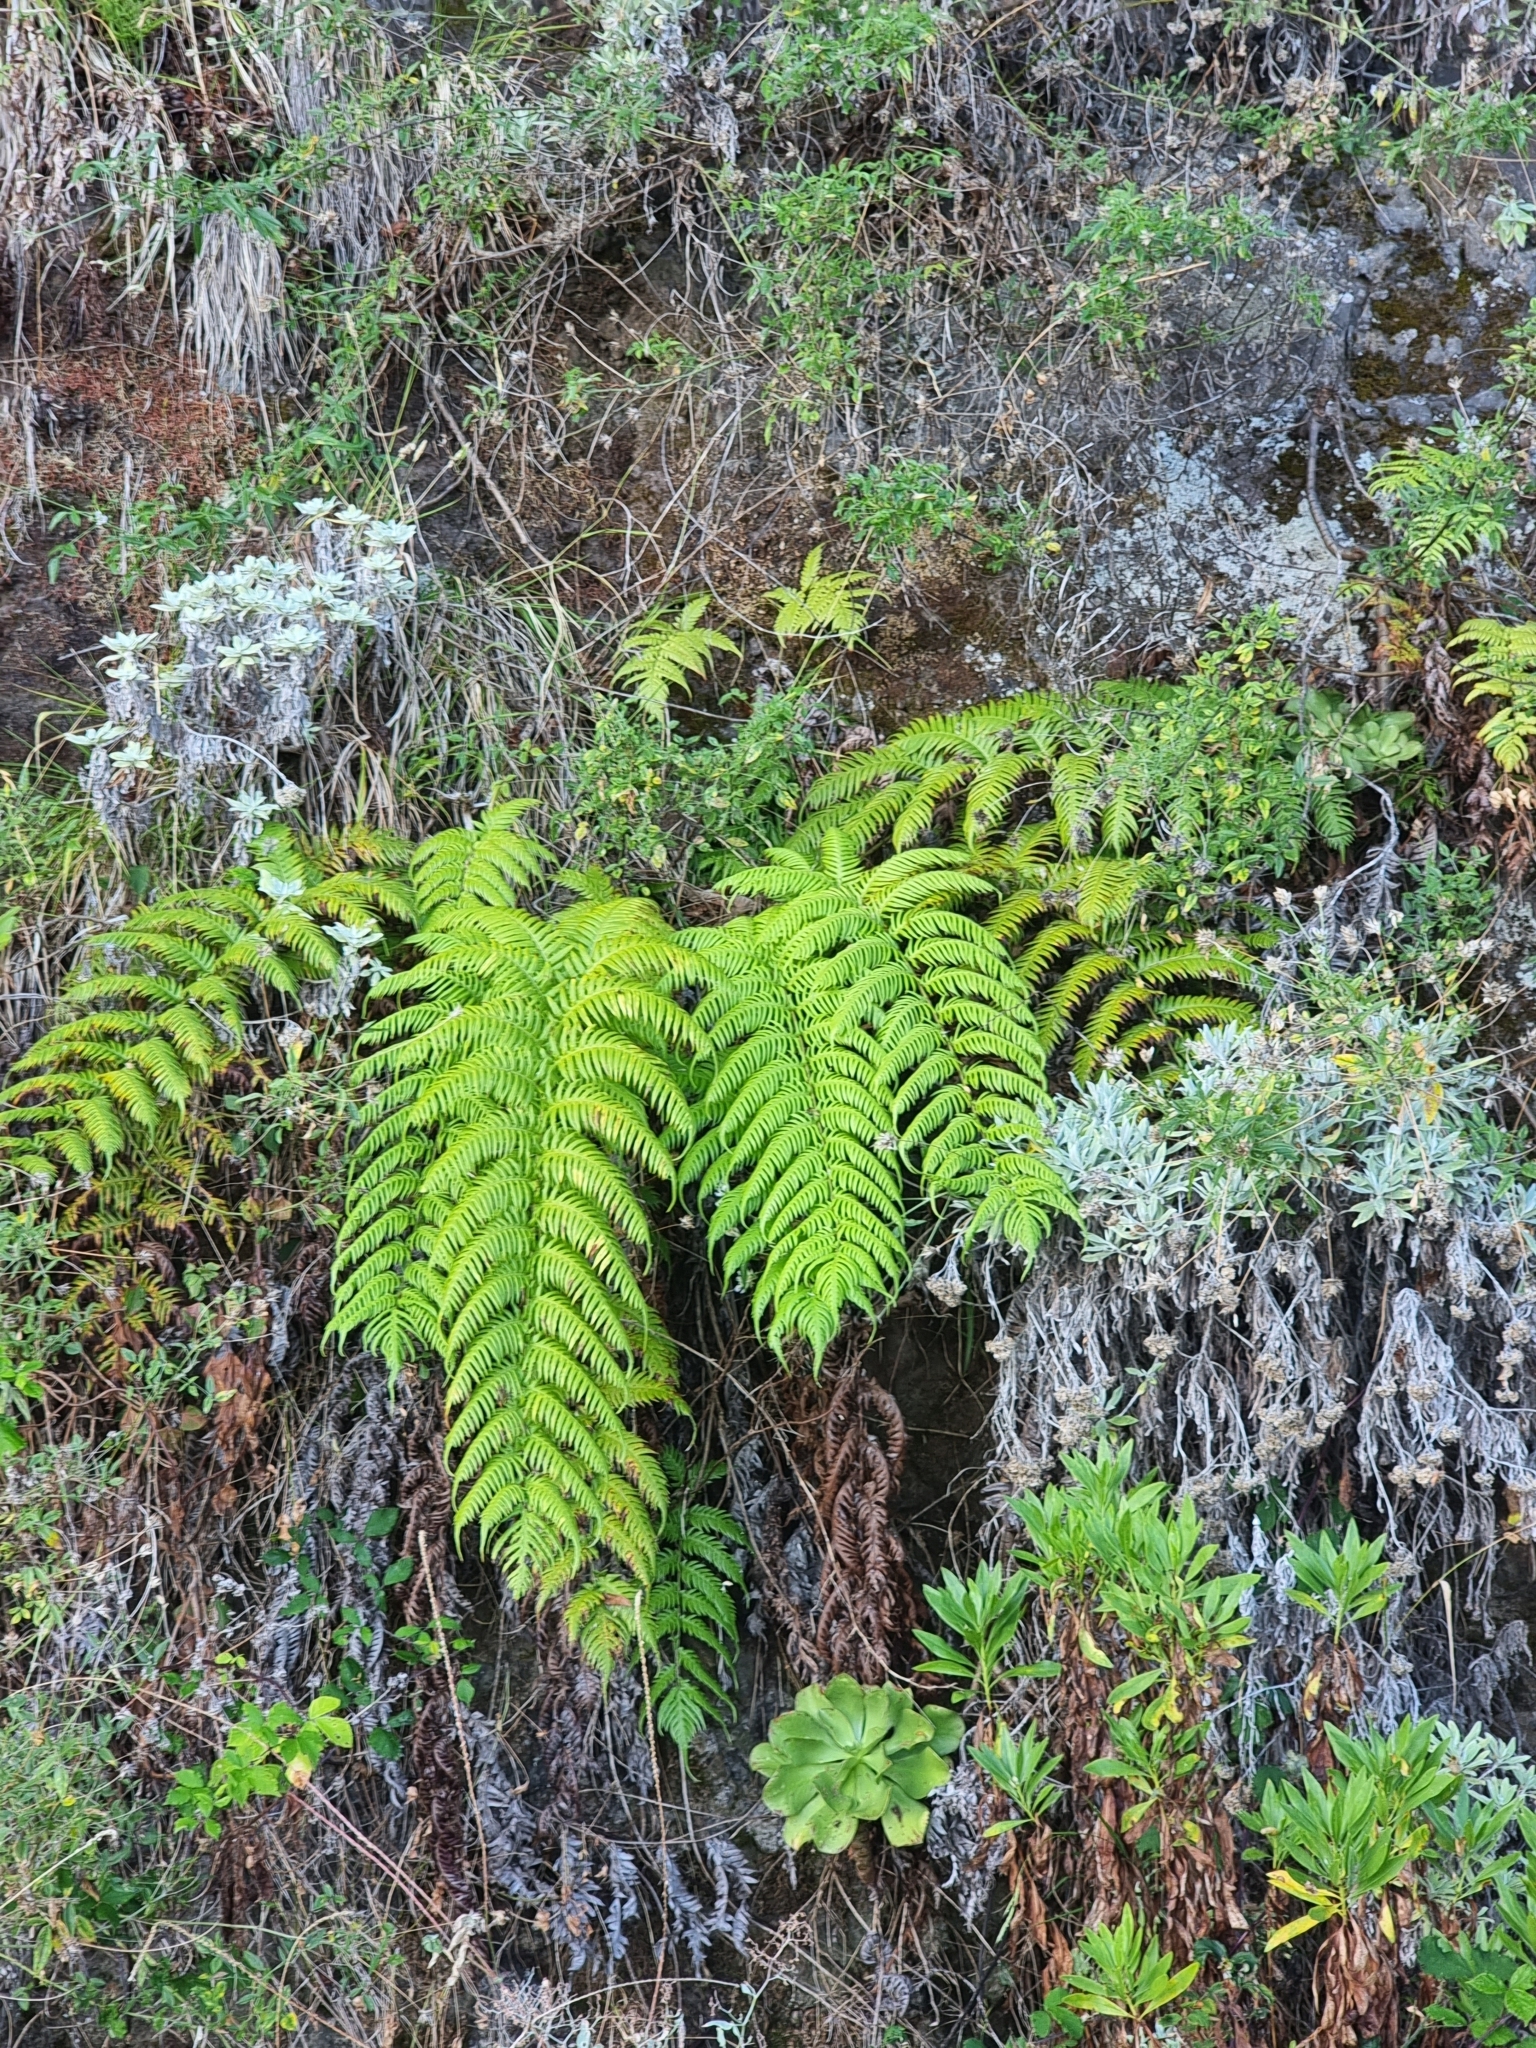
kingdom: Plantae
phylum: Tracheophyta
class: Polypodiopsida
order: Polypodiales
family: Blechnaceae
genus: Woodwardia
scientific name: Woodwardia radicans
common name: Rooting chainfern
